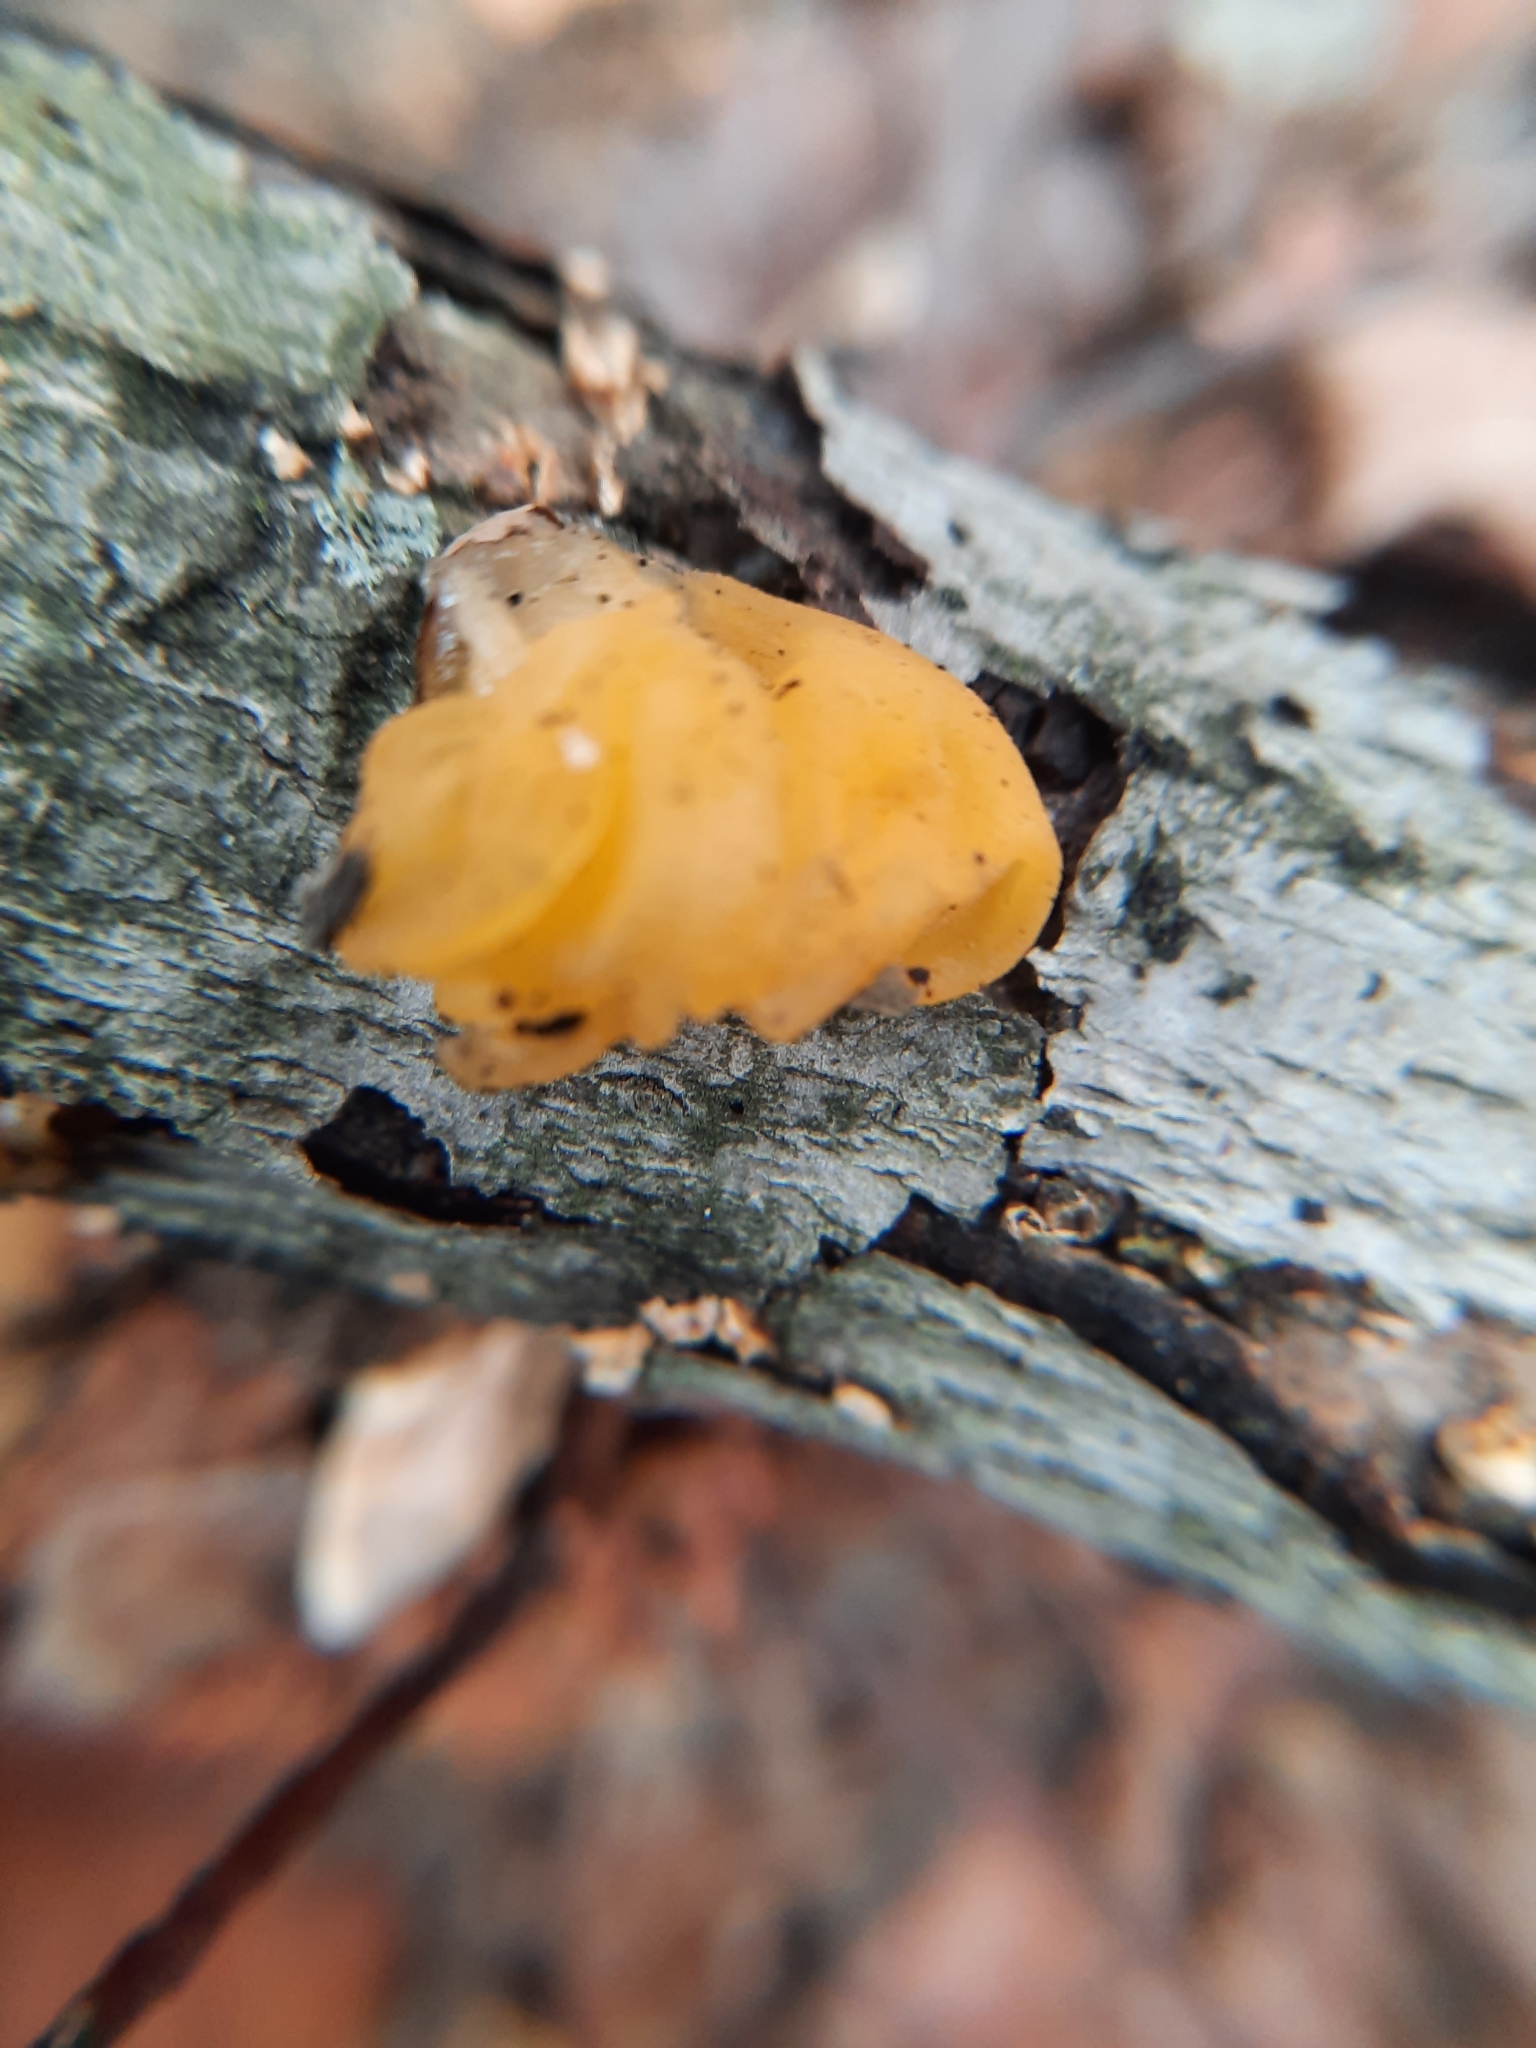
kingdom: Fungi
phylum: Basidiomycota
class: Tremellomycetes
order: Tremellales
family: Naemateliaceae
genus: Naematelia
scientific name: Naematelia aurantia
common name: Golden ear
